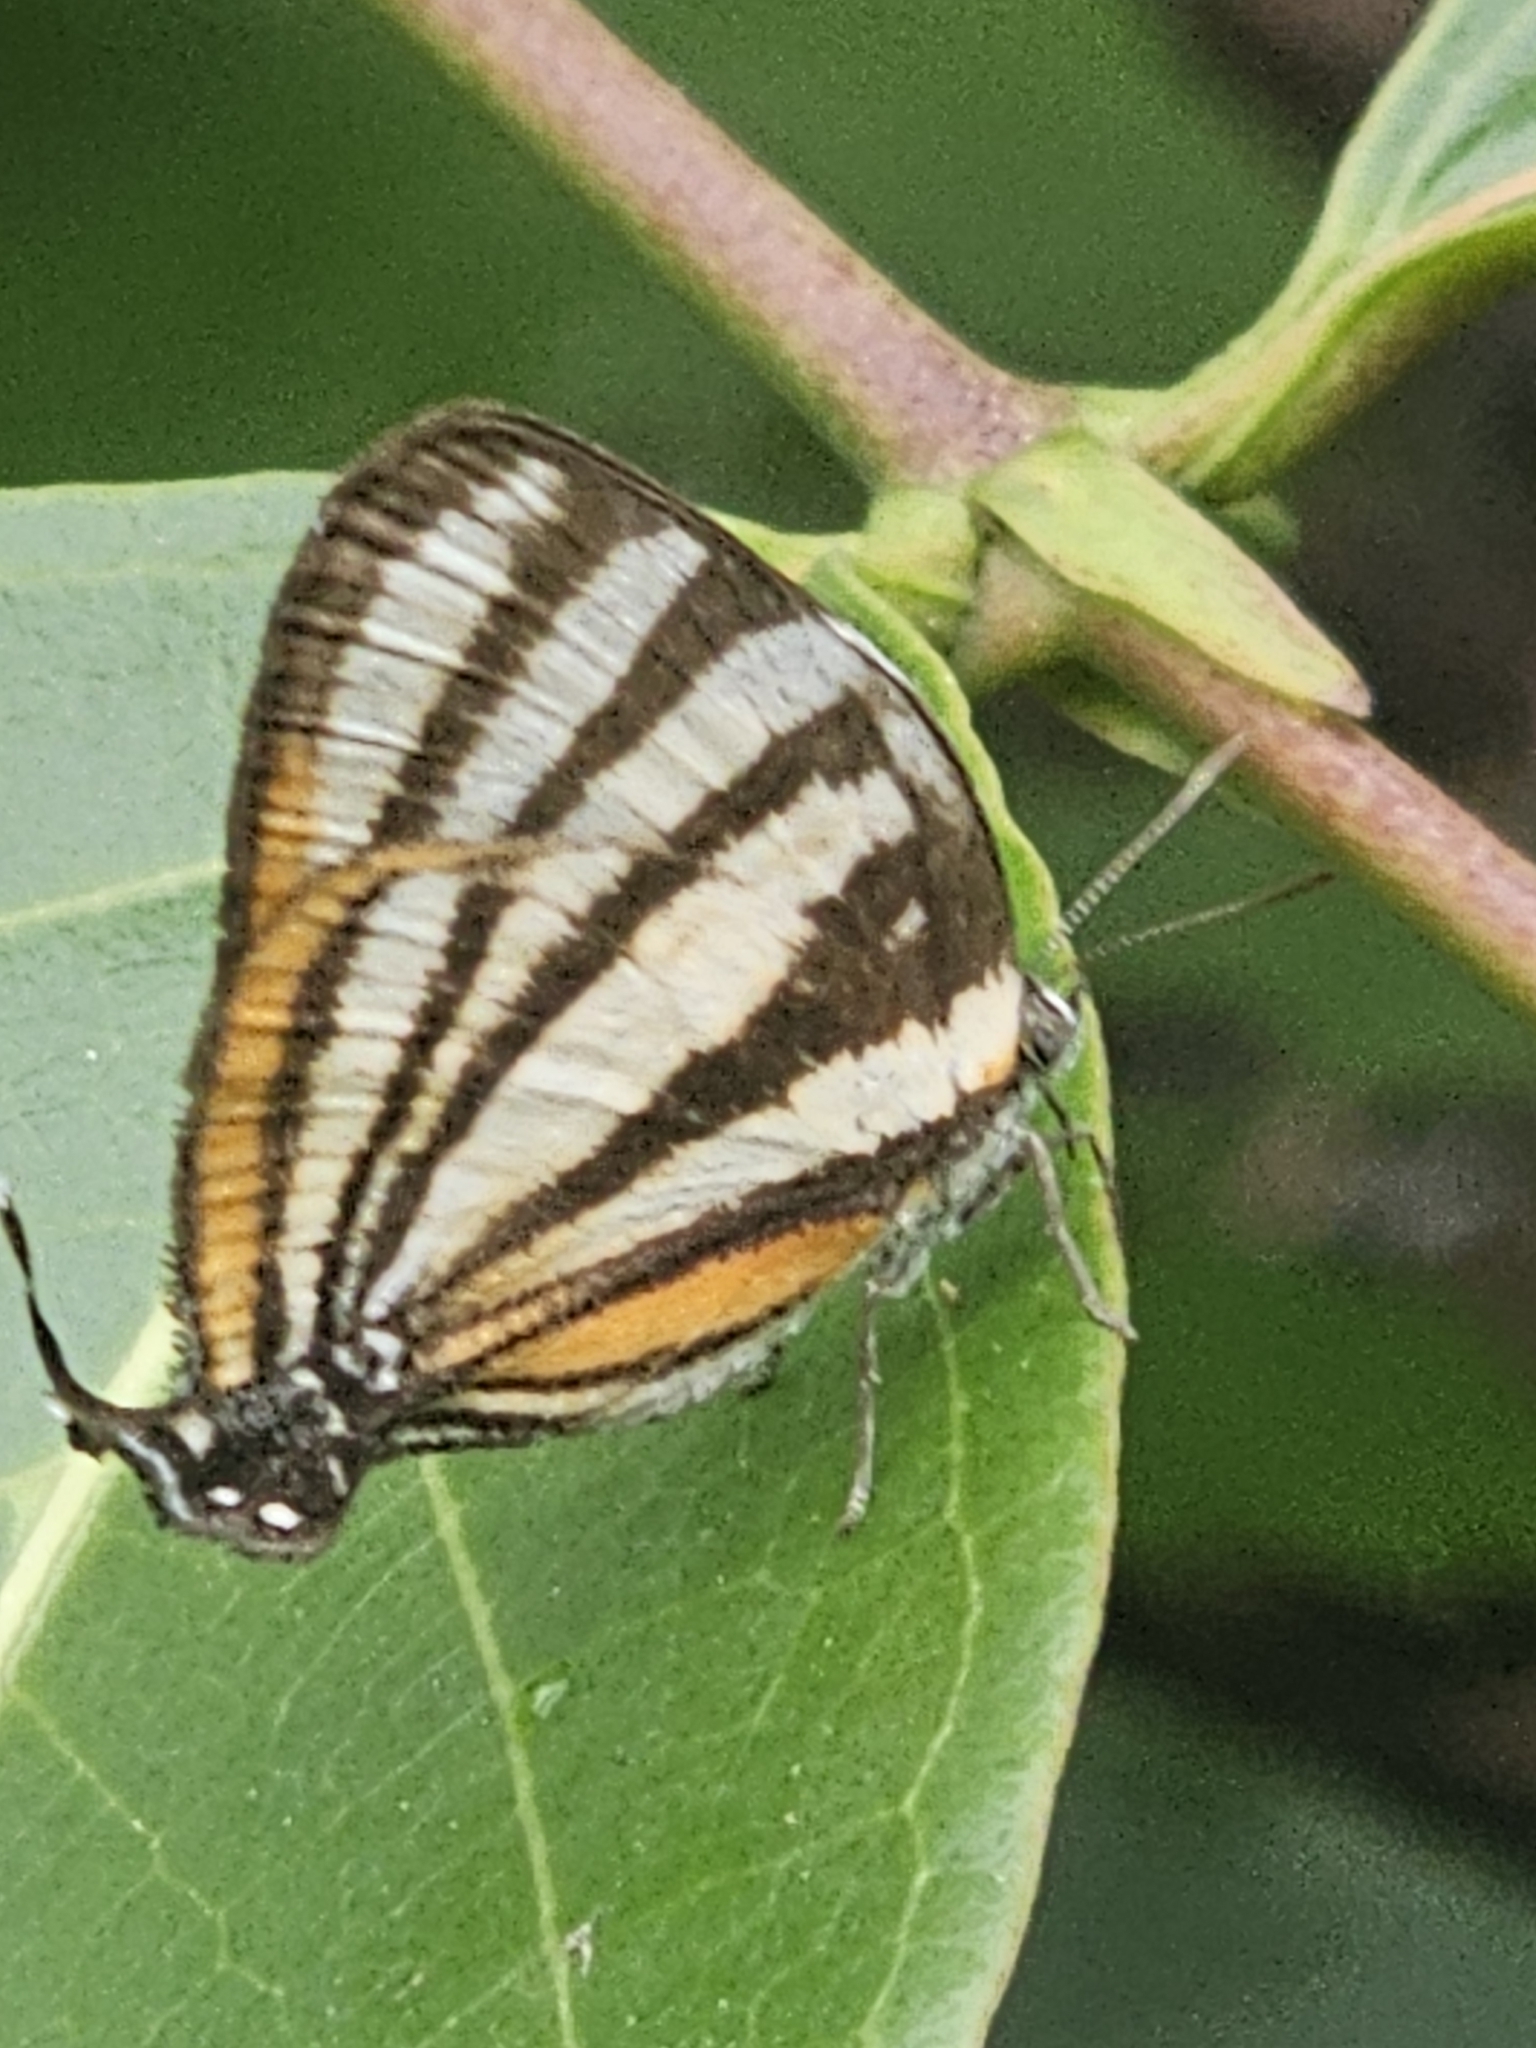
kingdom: Animalia
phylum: Arthropoda
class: Insecta
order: Lepidoptera
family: Lycaenidae
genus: Thecla
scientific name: Thecla aetolus
